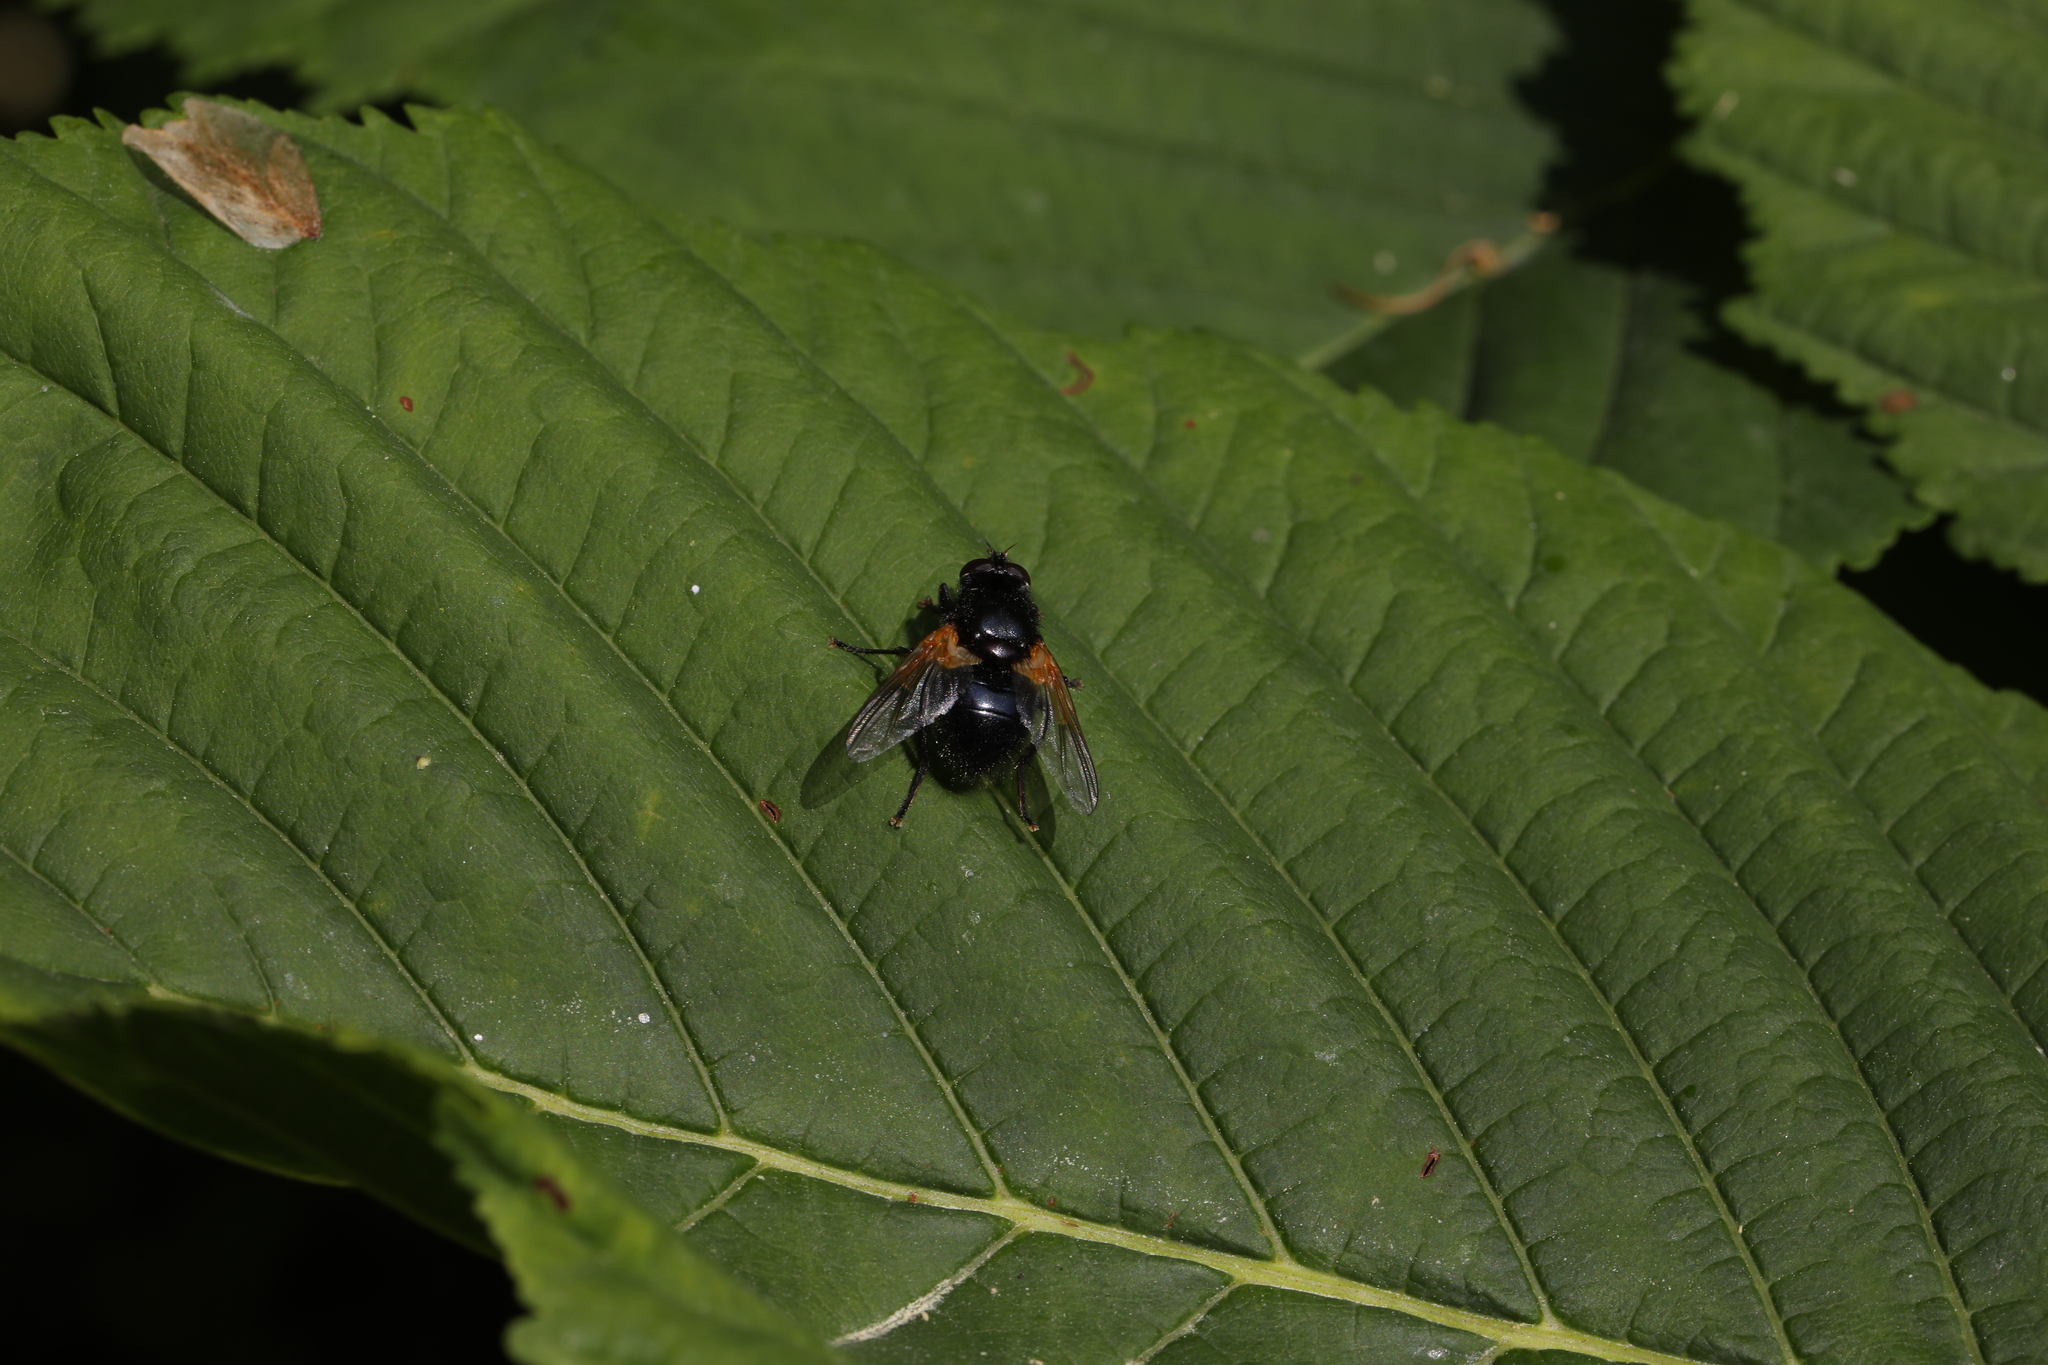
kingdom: Animalia
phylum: Arthropoda
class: Insecta
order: Diptera
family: Muscidae
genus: Mesembrina
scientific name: Mesembrina meridiana
